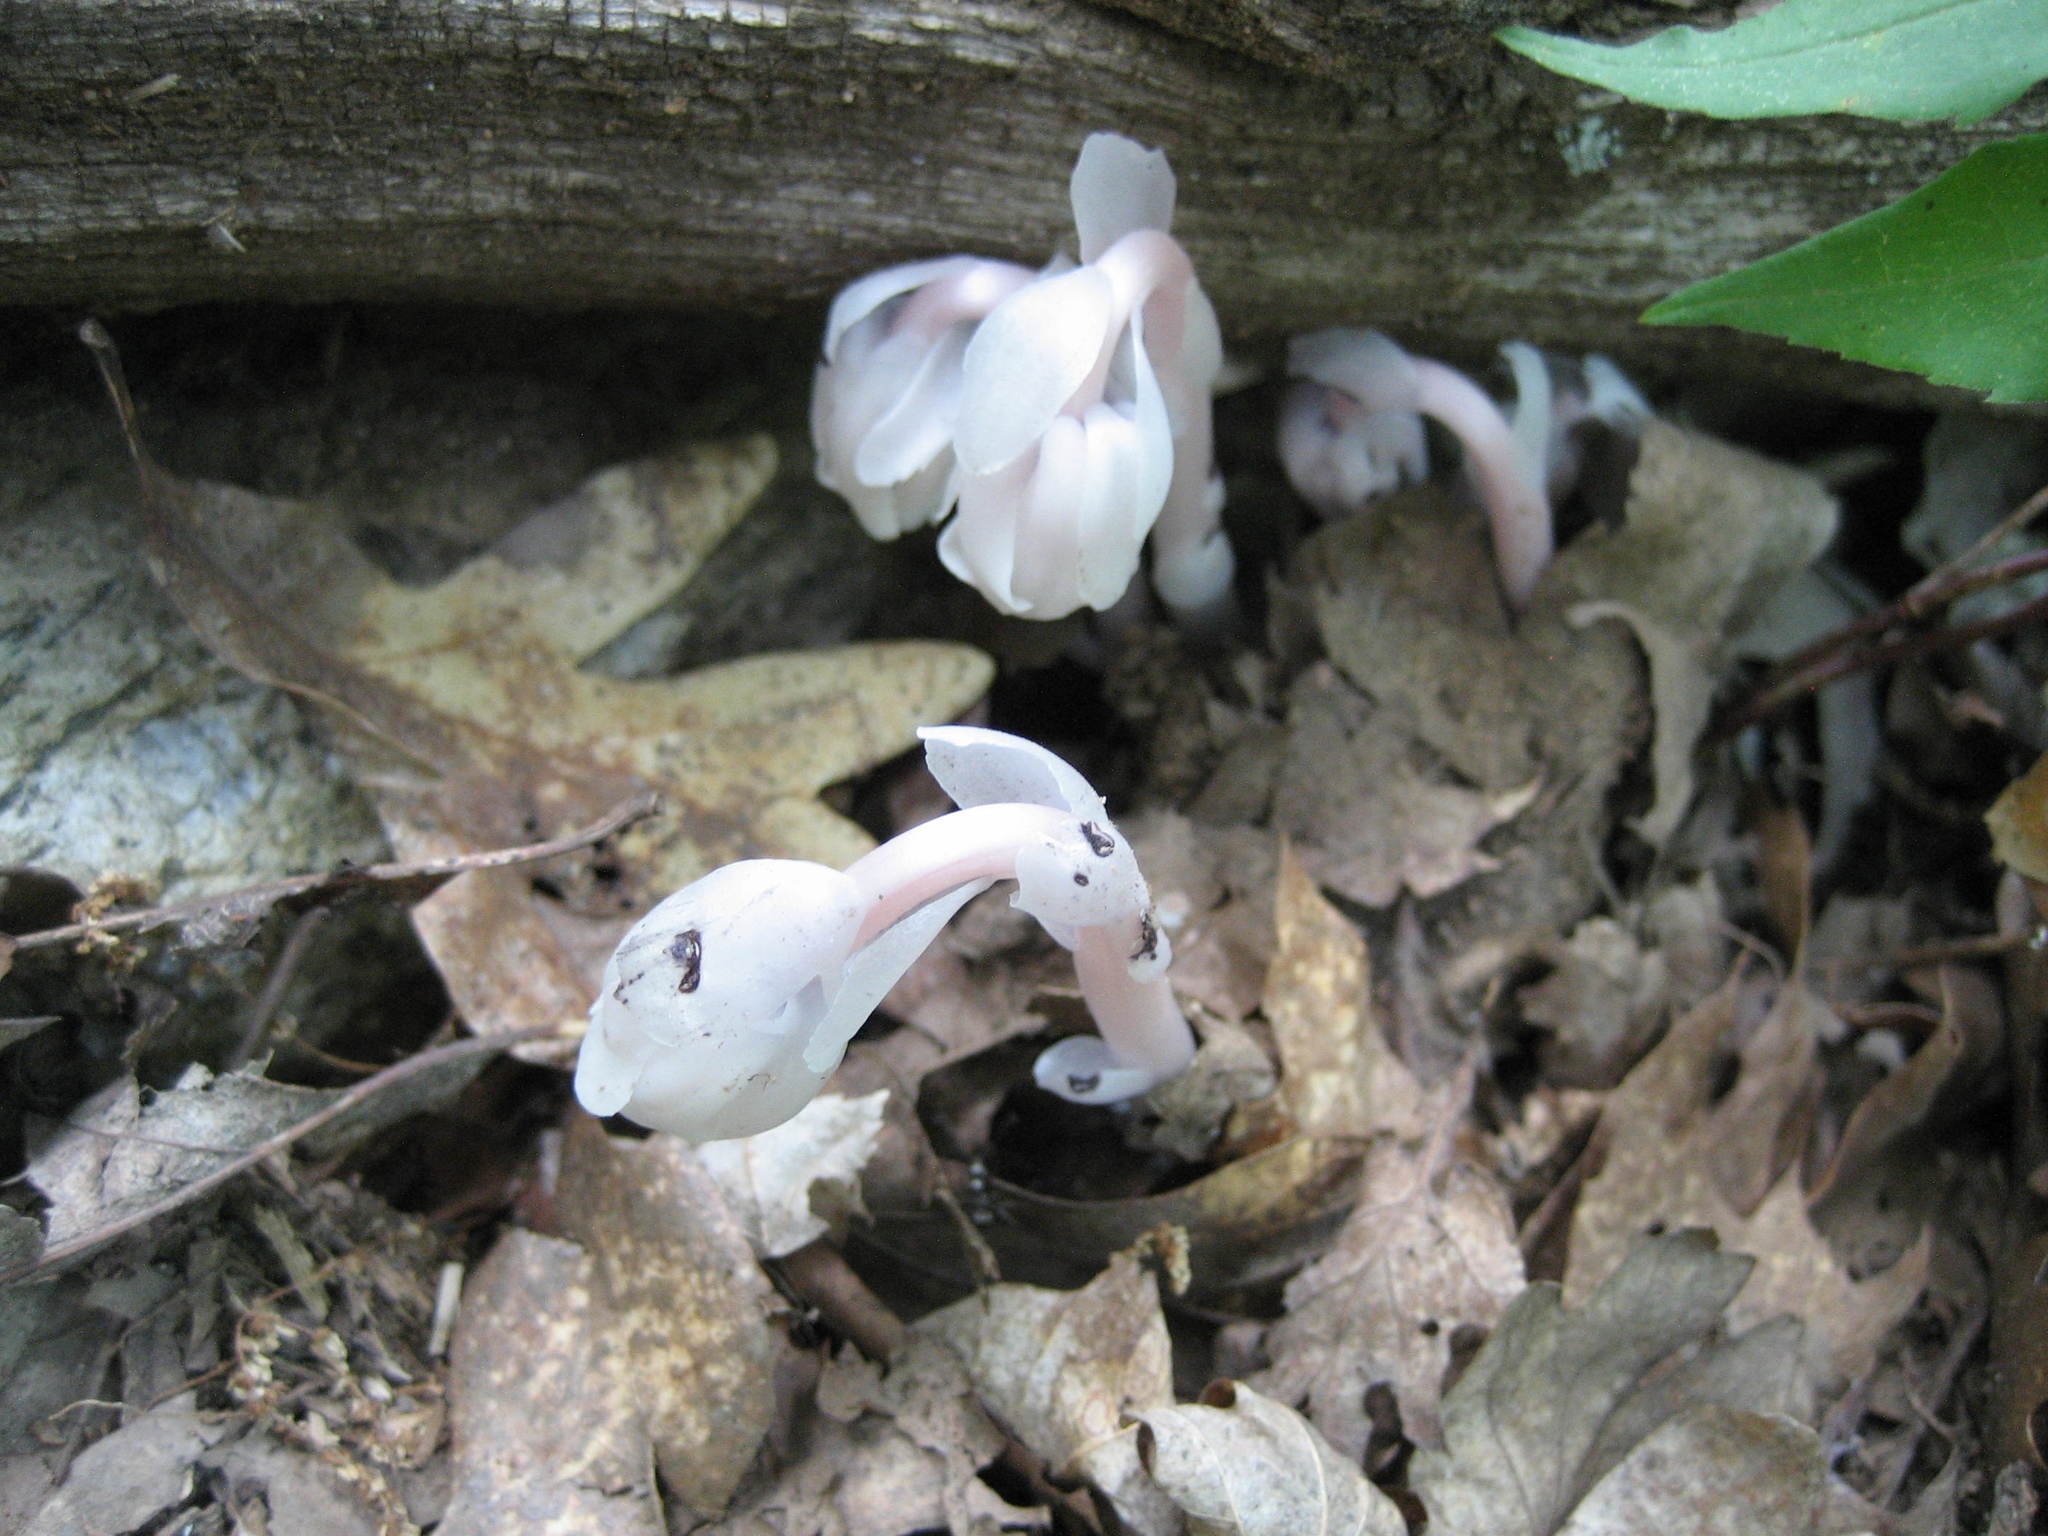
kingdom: Plantae
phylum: Tracheophyta
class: Magnoliopsida
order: Ericales
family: Ericaceae
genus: Monotropa
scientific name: Monotropa uniflora
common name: Convulsion root
